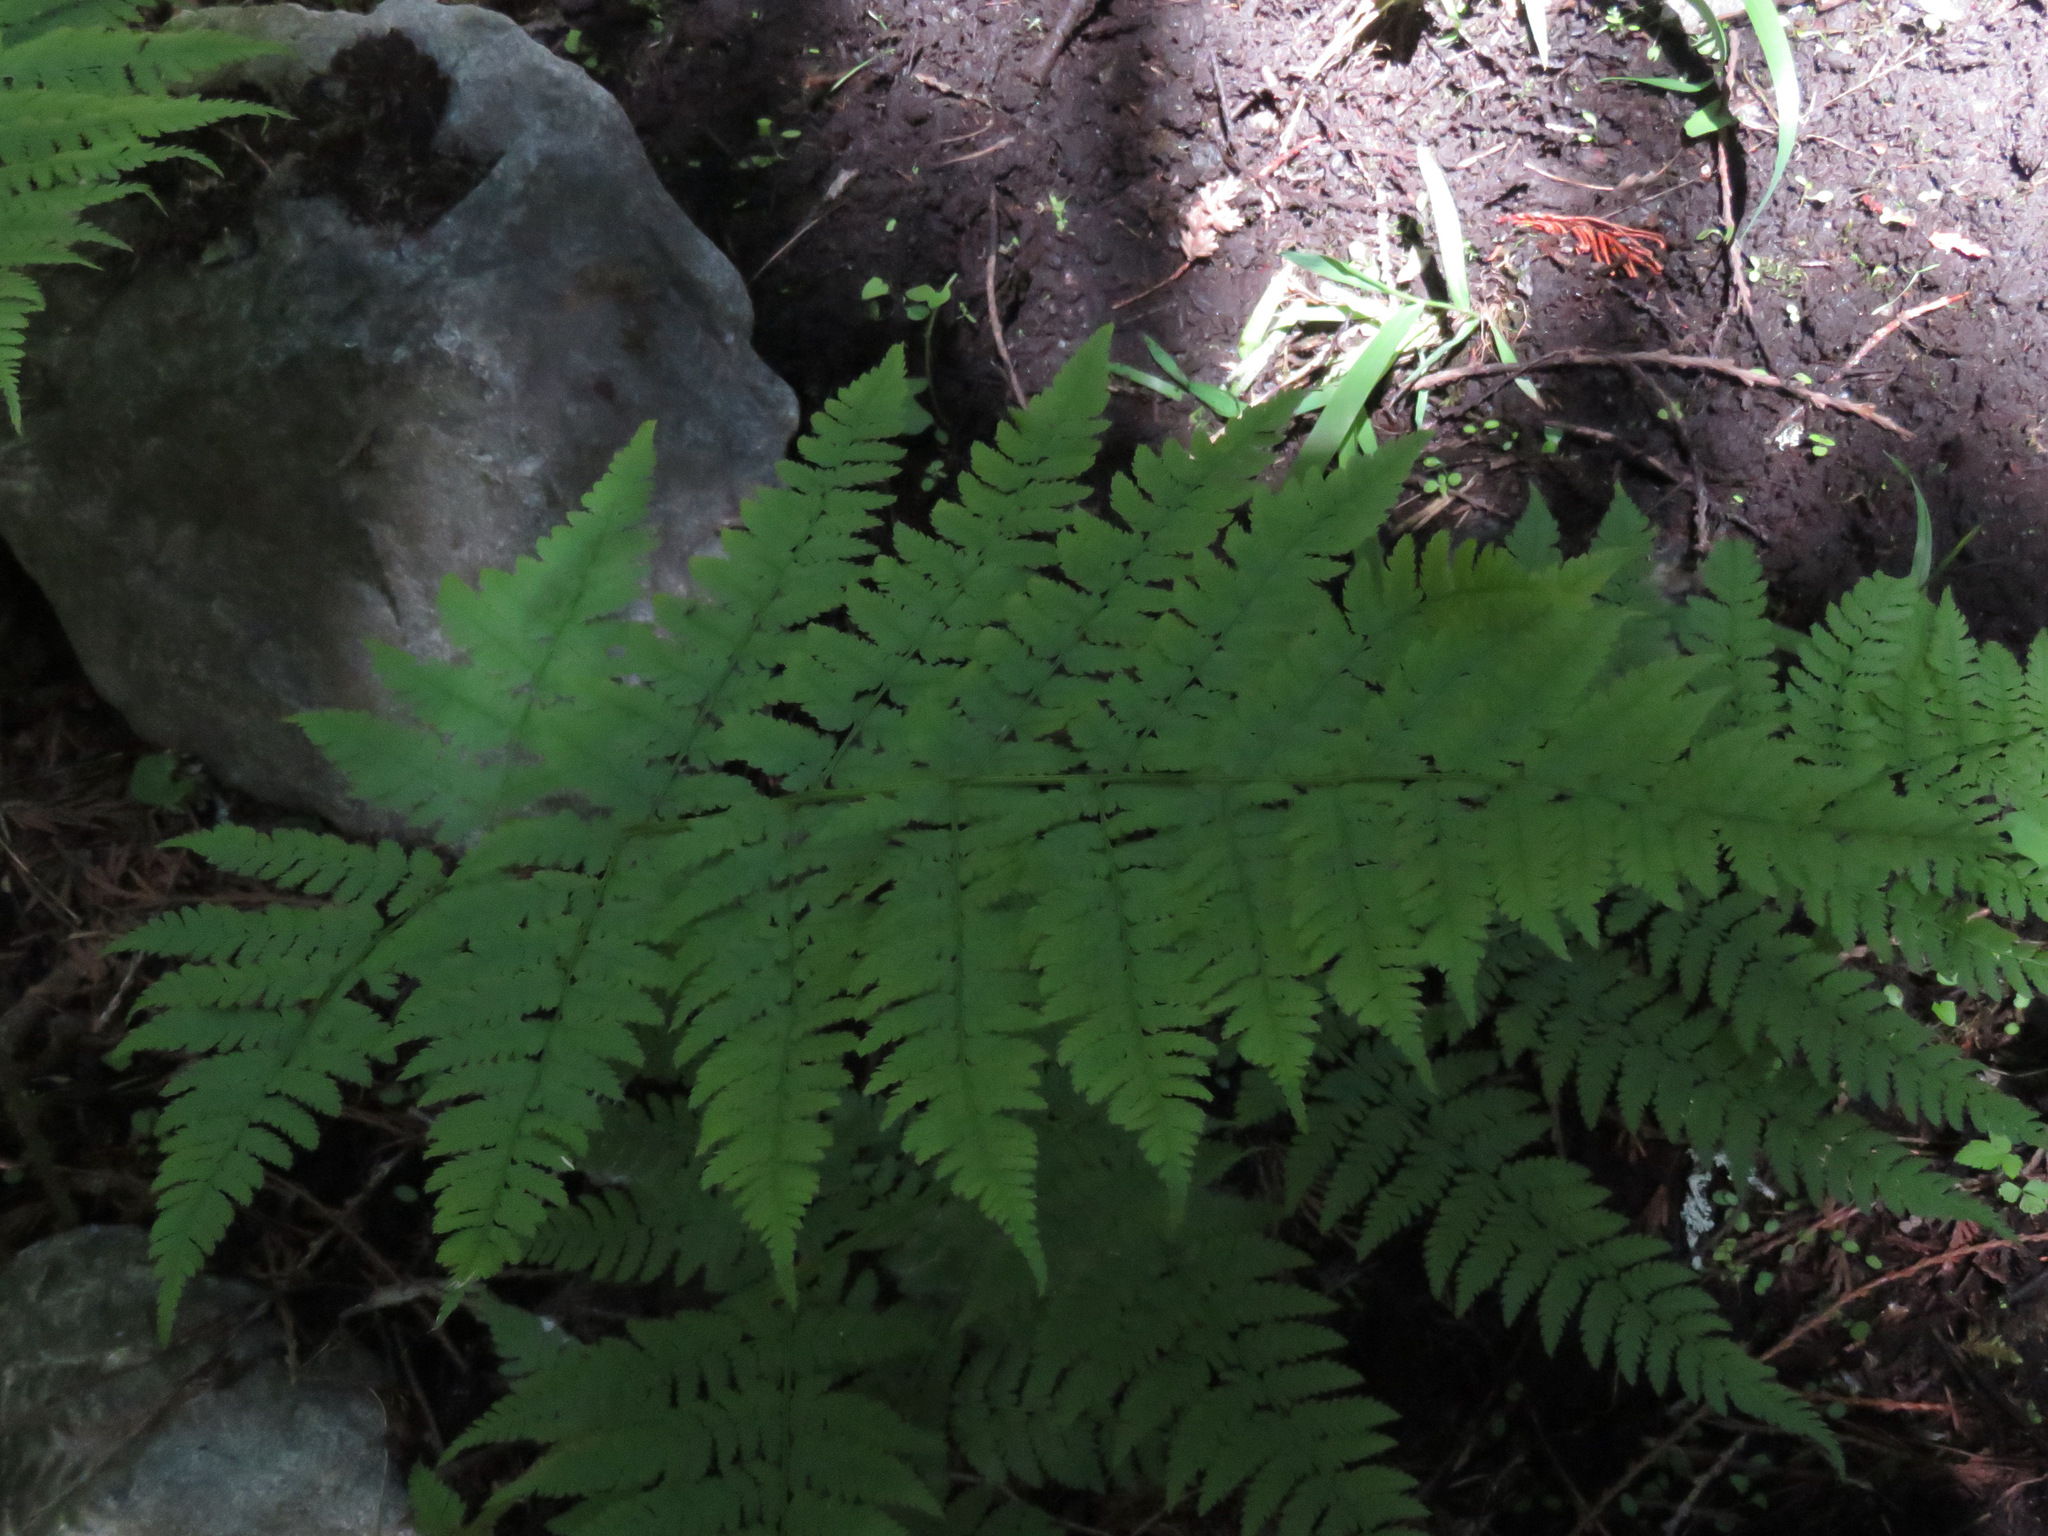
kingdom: Plantae
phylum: Tracheophyta
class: Polypodiopsida
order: Polypodiales
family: Dryopteridaceae
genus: Dryopteris
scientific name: Dryopteris expansa
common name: Northern buckler fern
